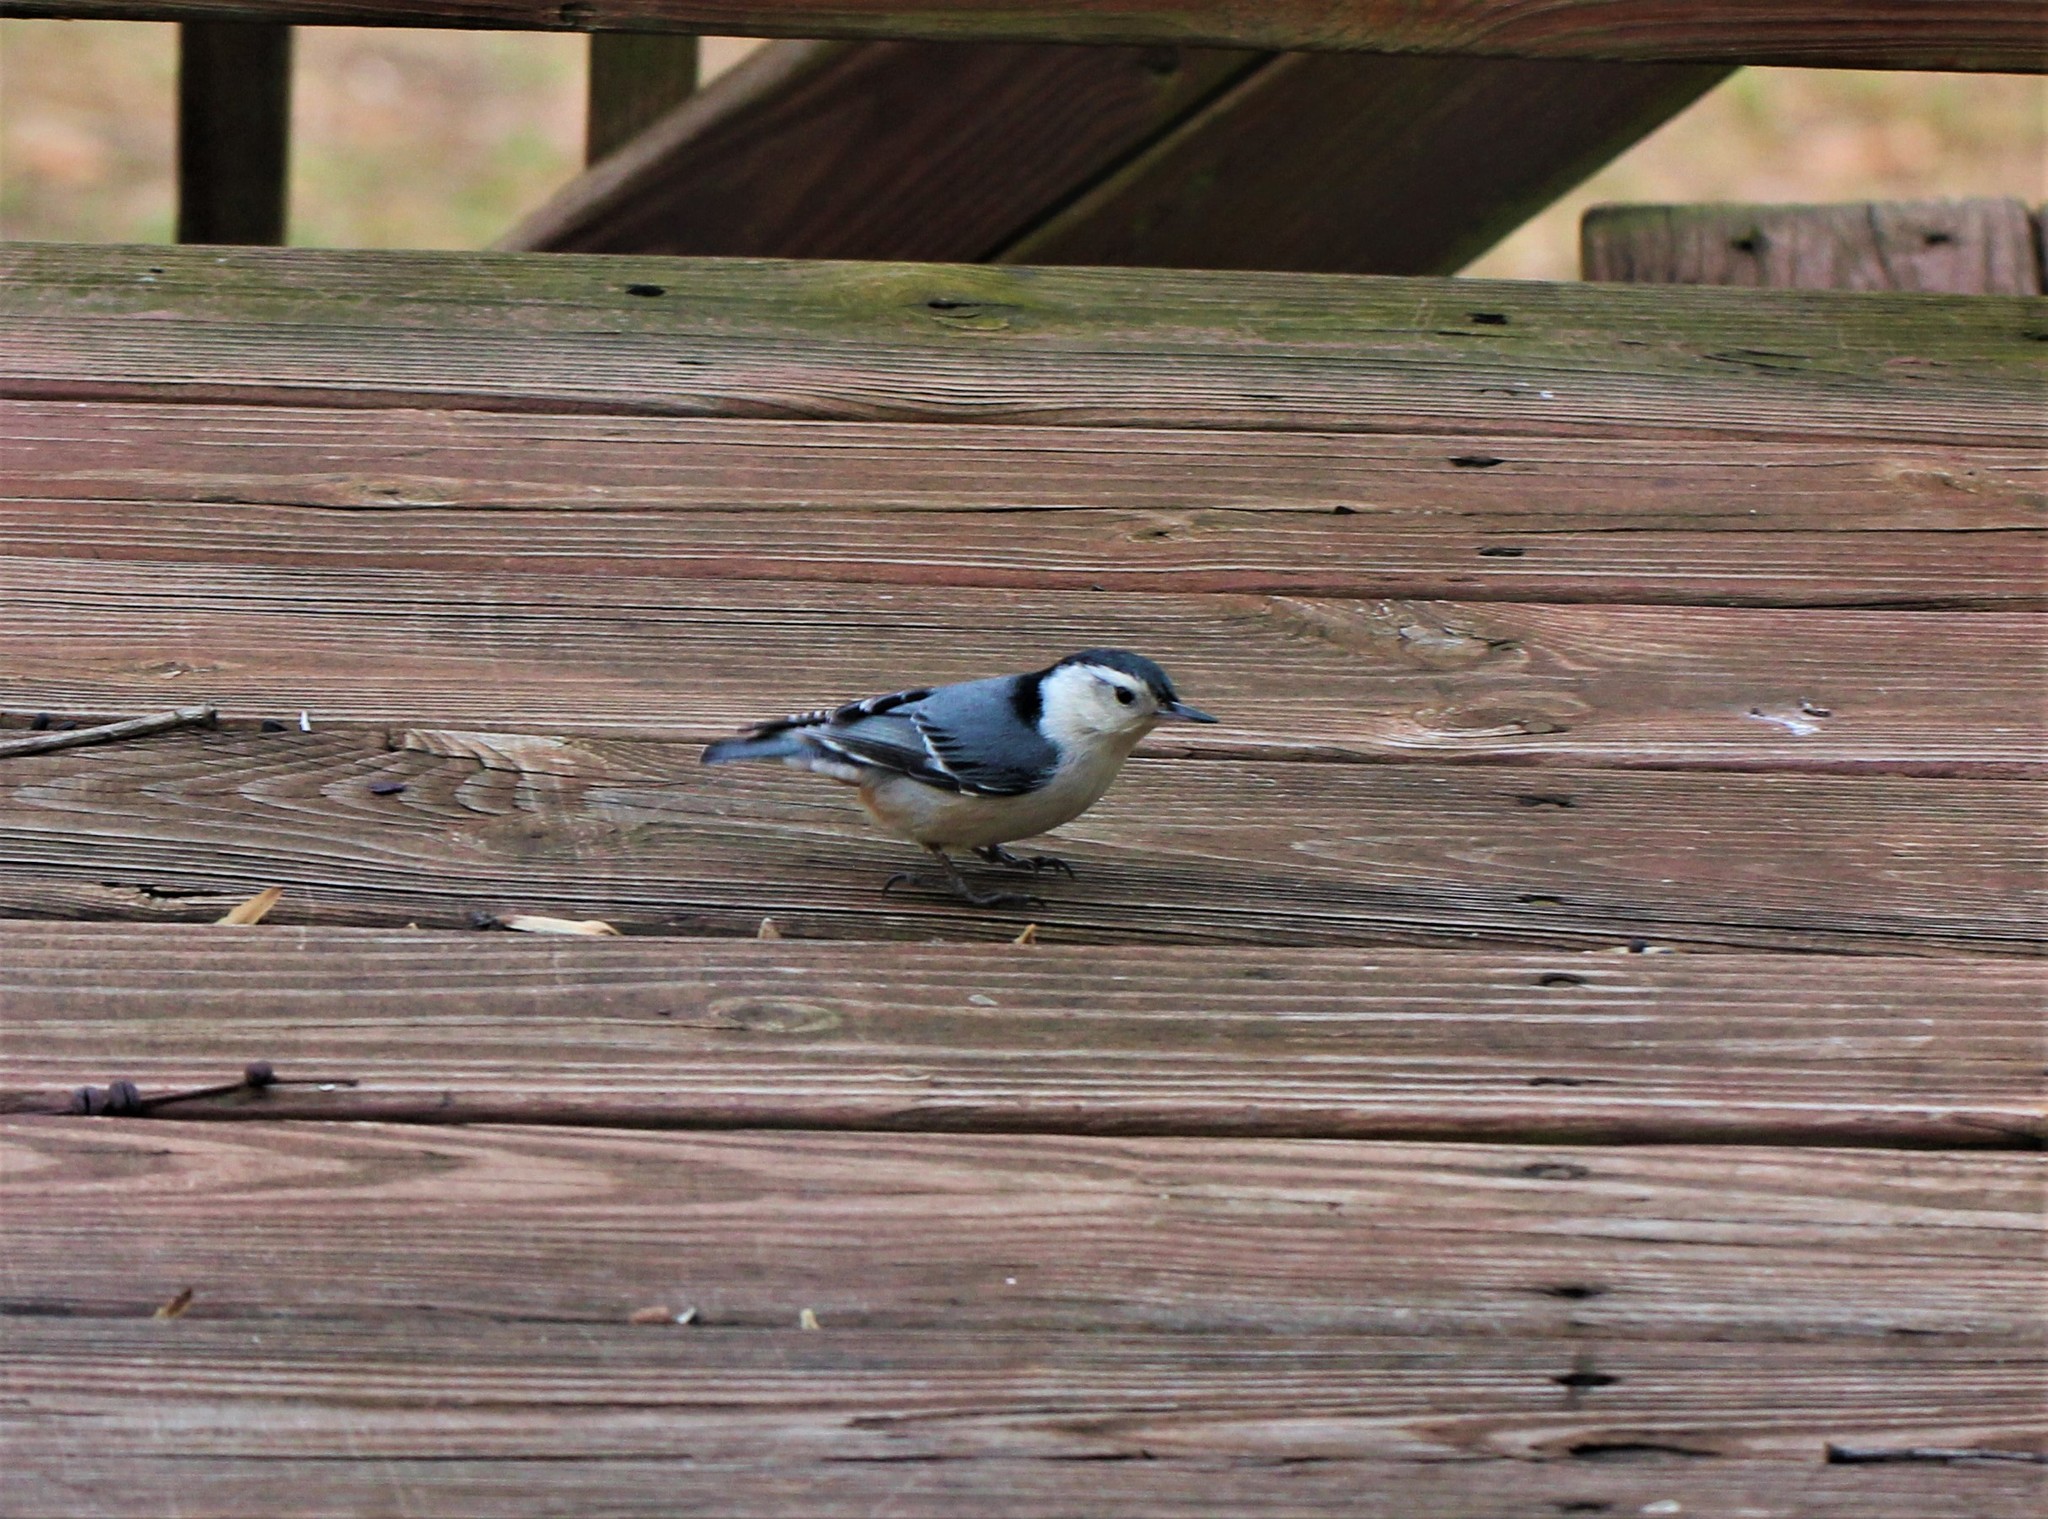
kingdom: Animalia
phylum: Chordata
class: Aves
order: Passeriformes
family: Sittidae
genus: Sitta
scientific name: Sitta carolinensis
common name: White-breasted nuthatch
